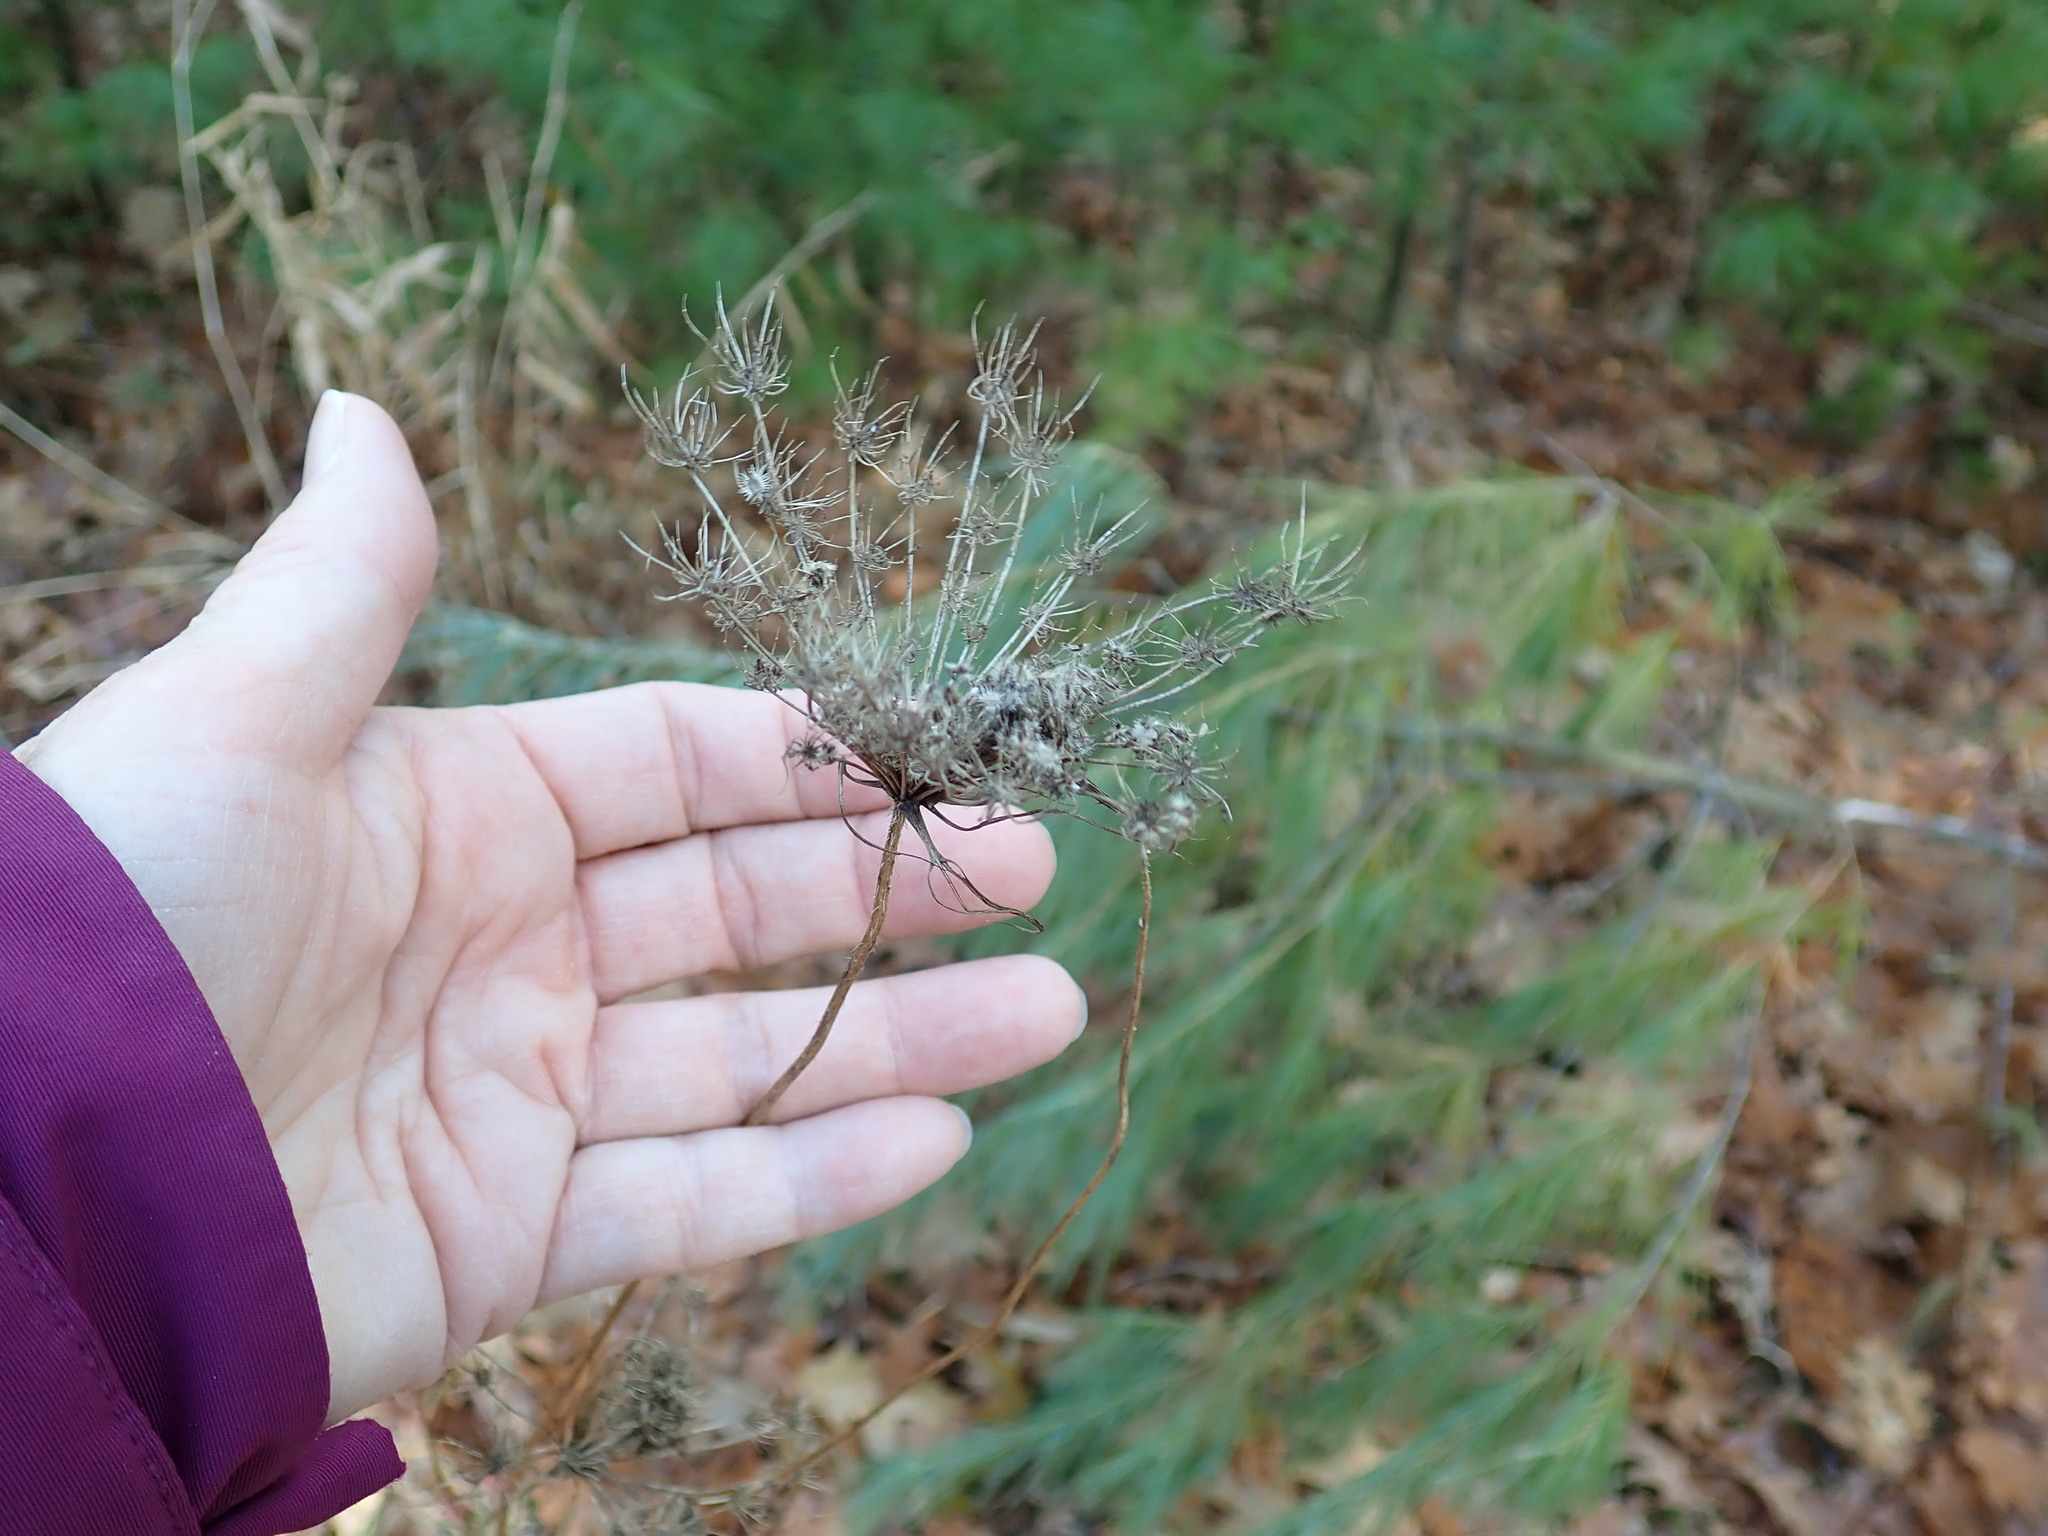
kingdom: Plantae
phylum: Tracheophyta
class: Magnoliopsida
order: Apiales
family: Apiaceae
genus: Daucus
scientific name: Daucus carota
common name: Wild carrot
